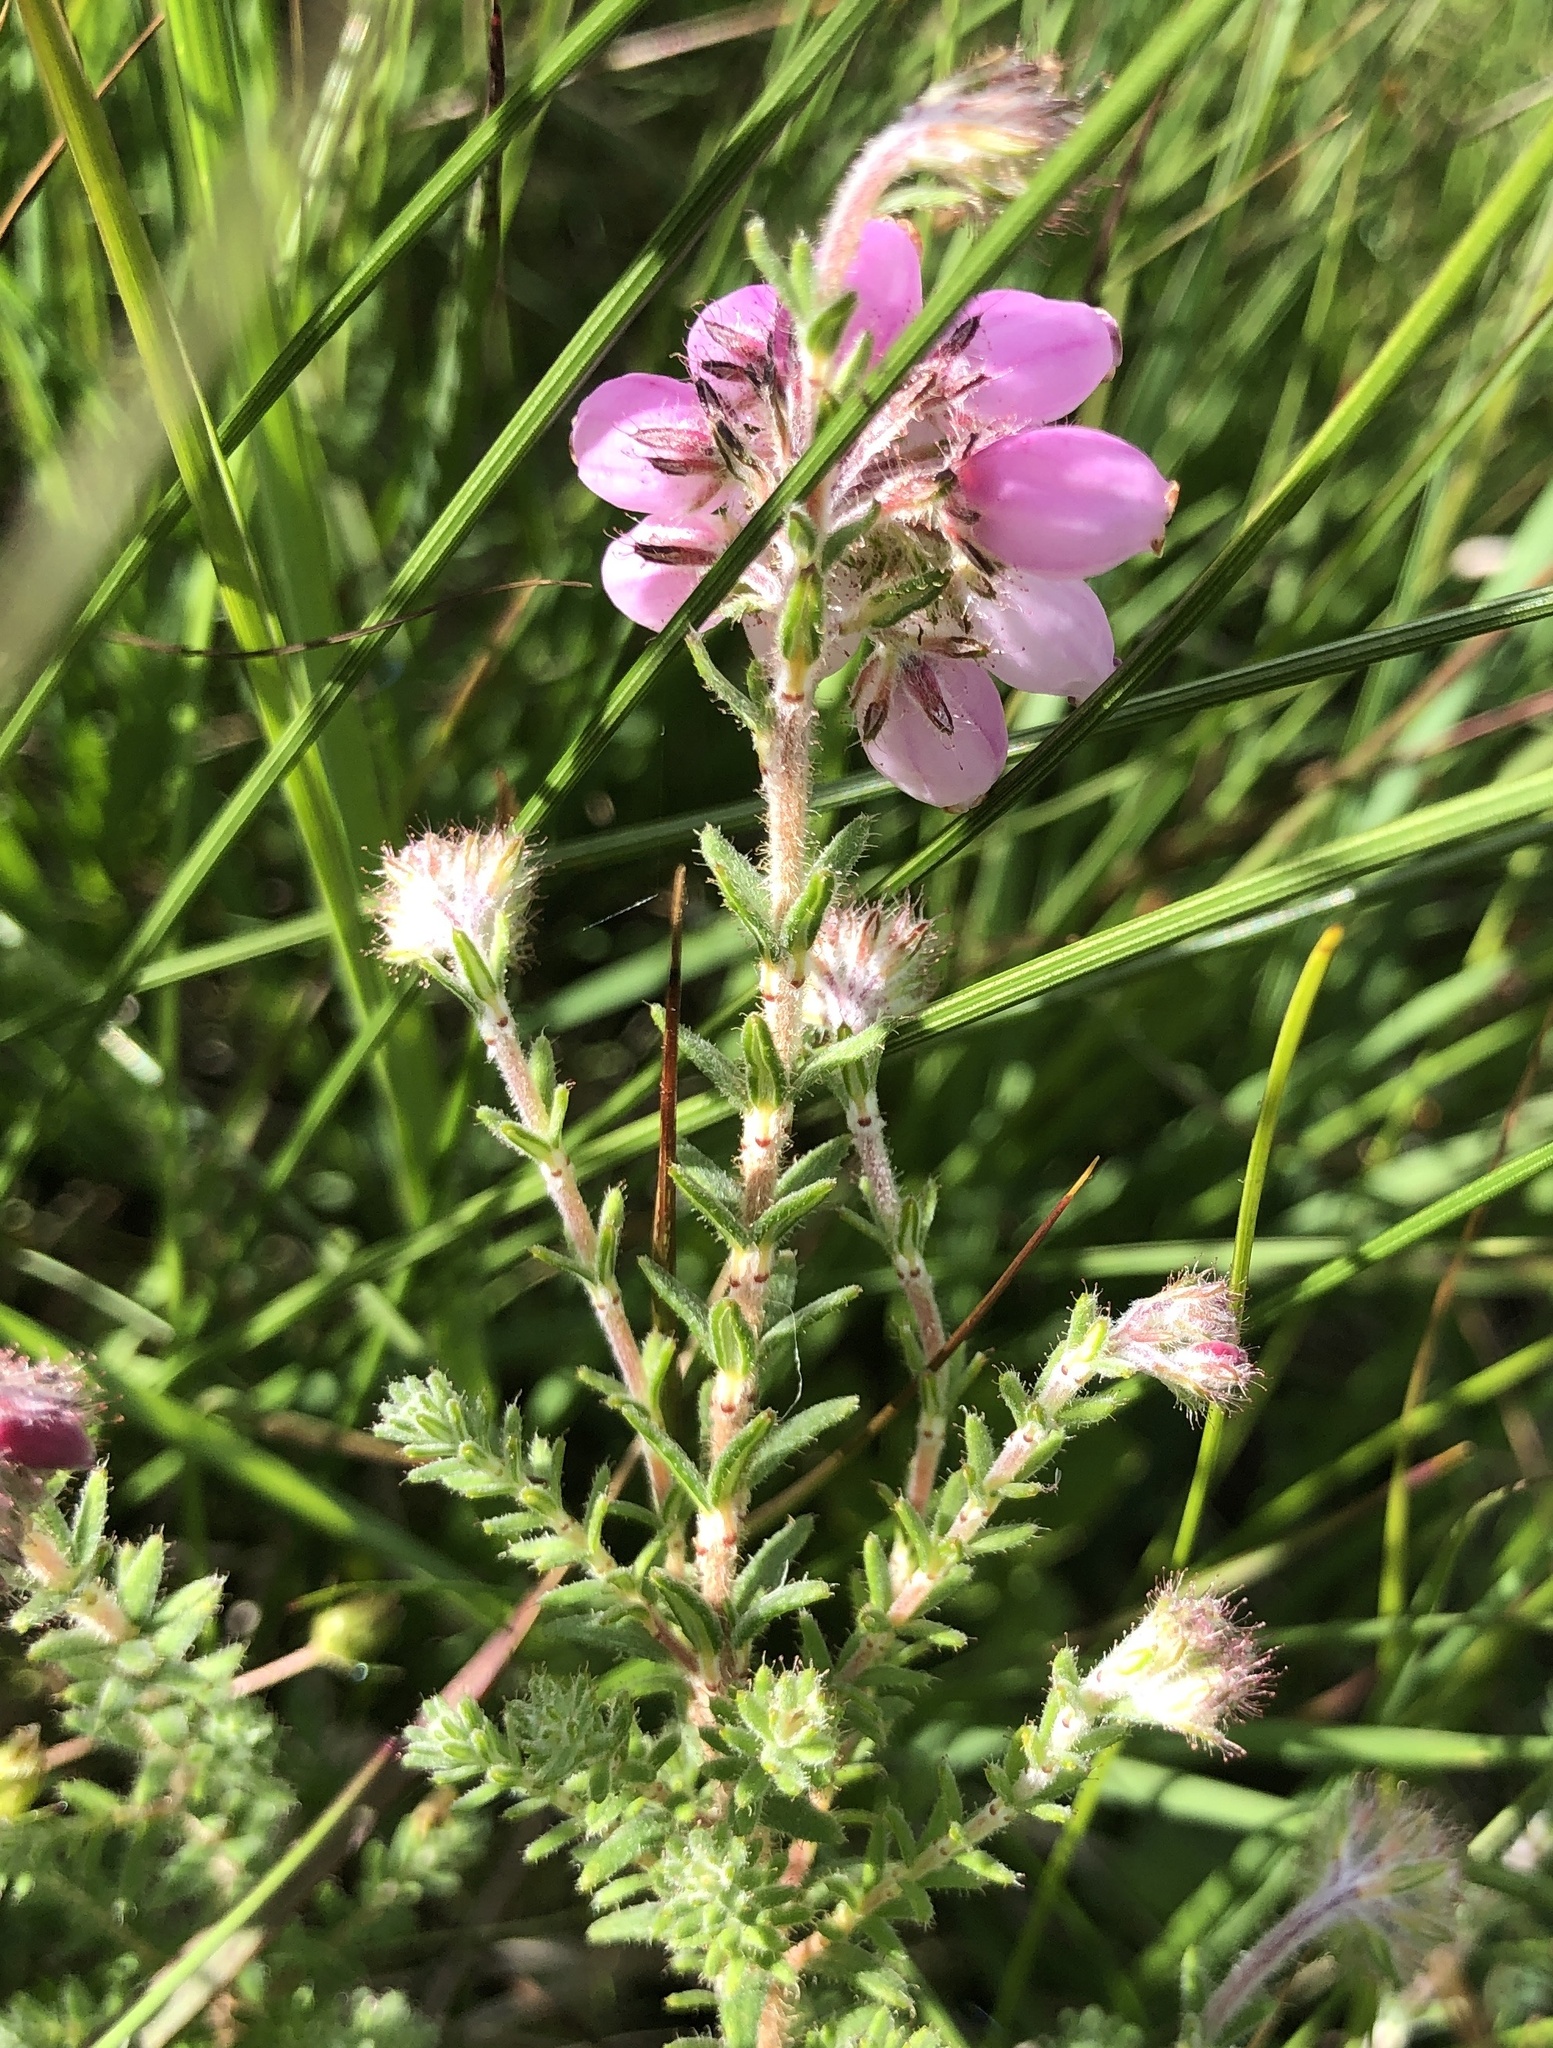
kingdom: Plantae
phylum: Tracheophyta
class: Magnoliopsida
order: Ericales
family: Ericaceae
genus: Erica
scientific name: Erica tetralix
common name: Cross-leaved heath
